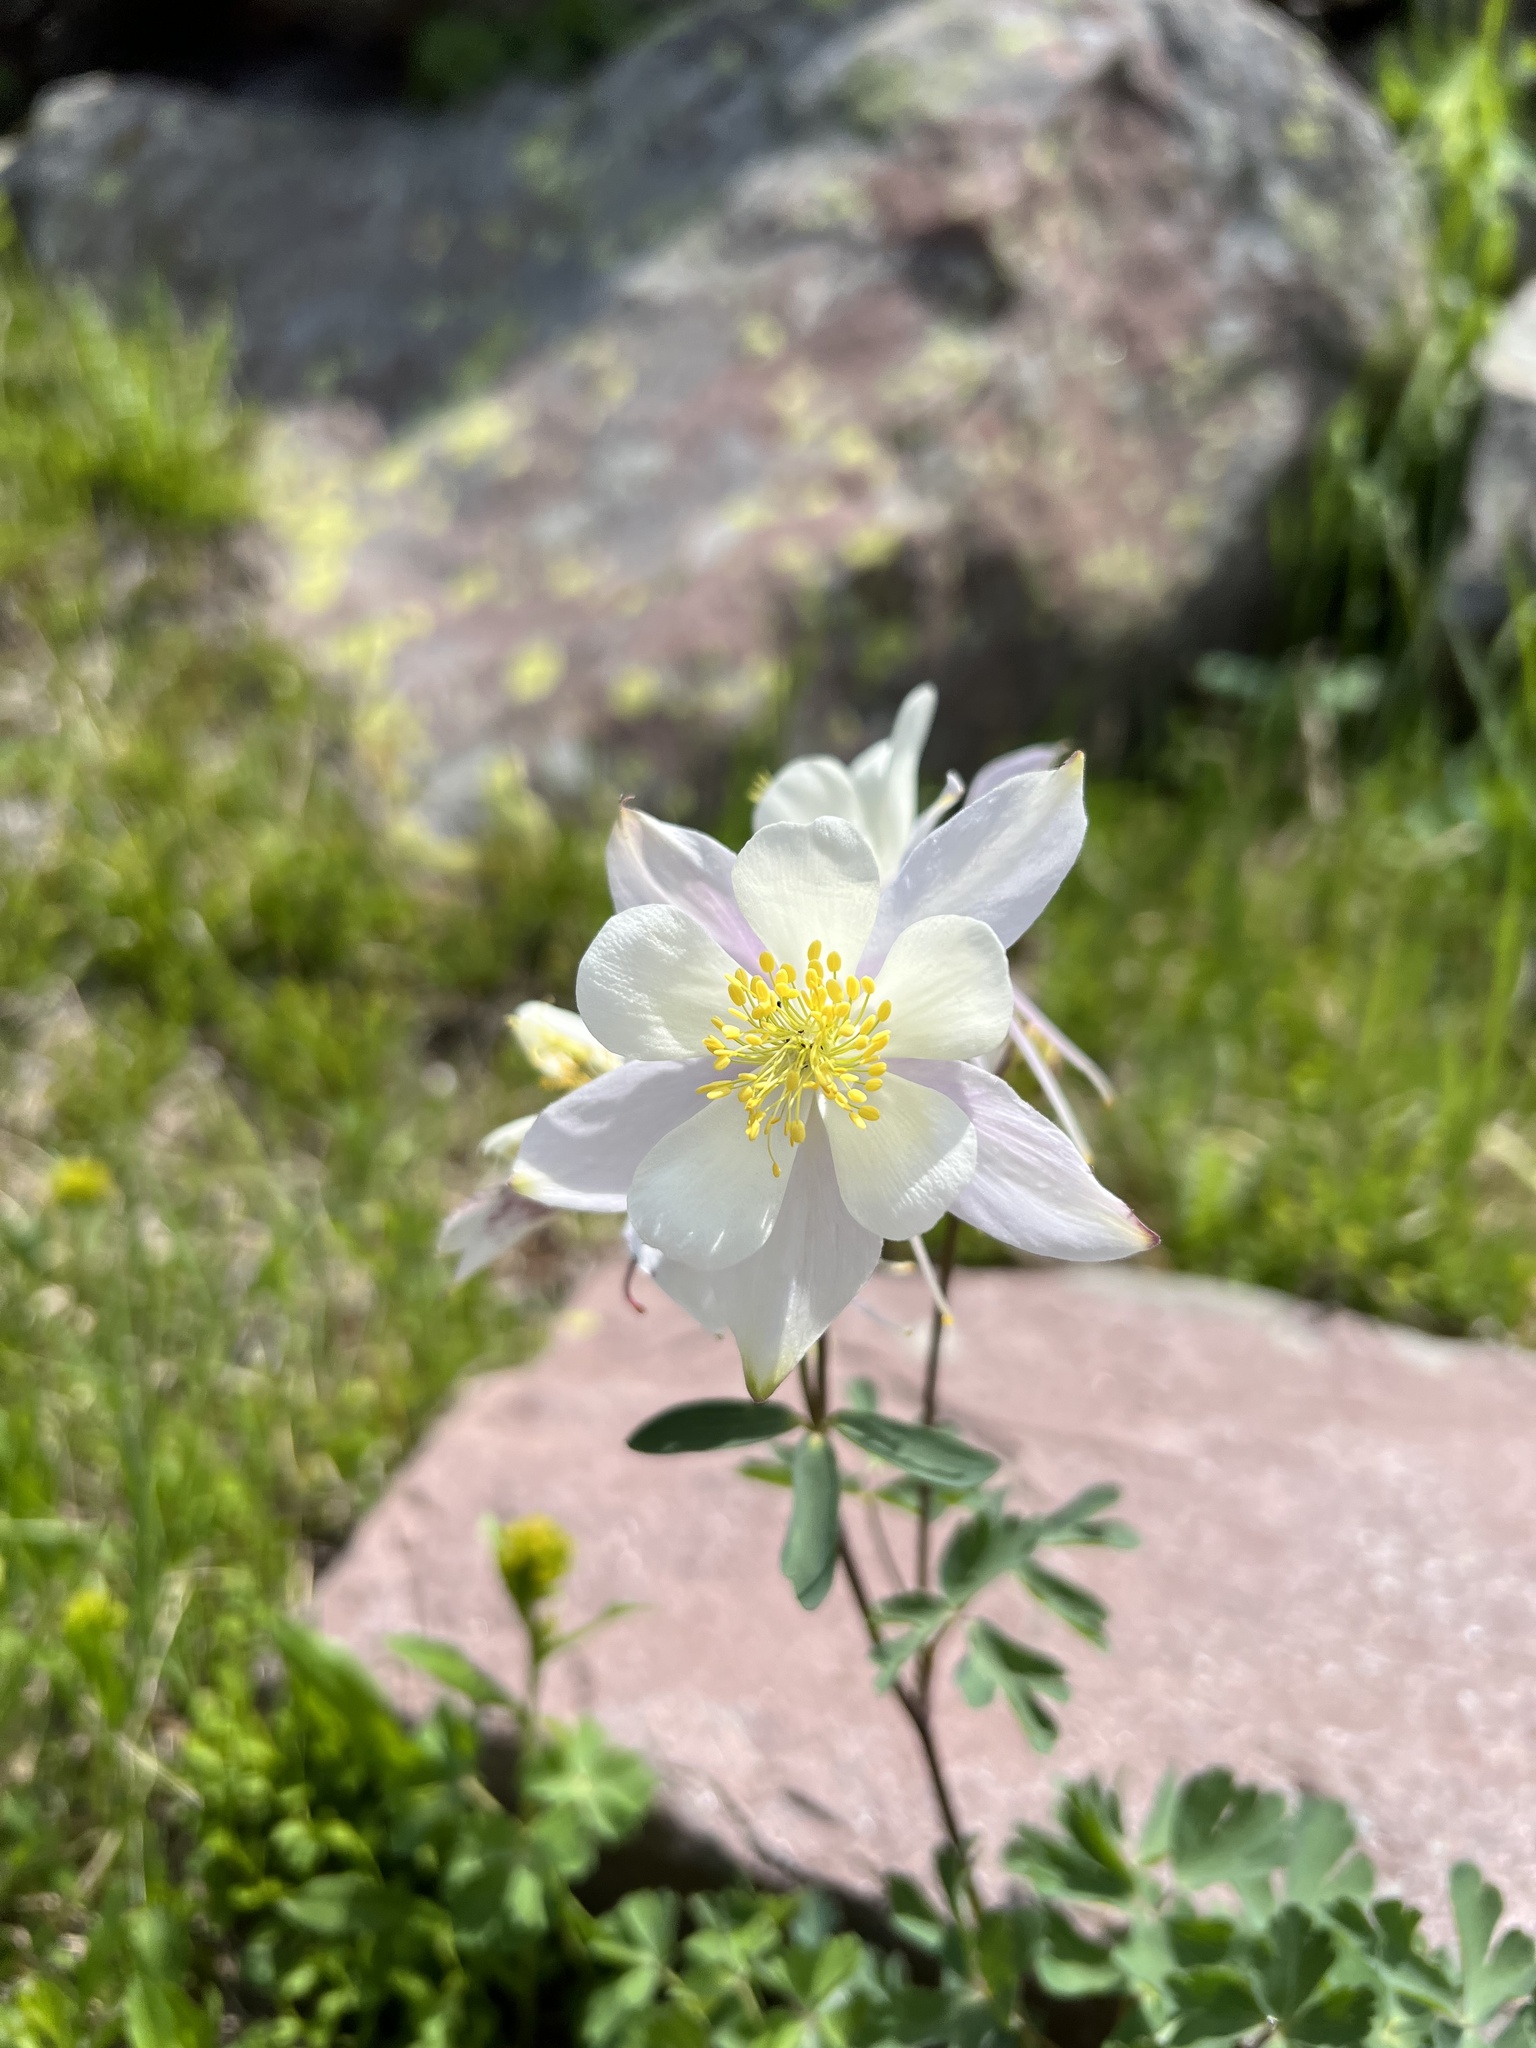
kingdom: Plantae
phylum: Tracheophyta
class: Magnoliopsida
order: Ranunculales
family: Ranunculaceae
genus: Aquilegia
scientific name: Aquilegia coerulea
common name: Rocky mountain columbine
